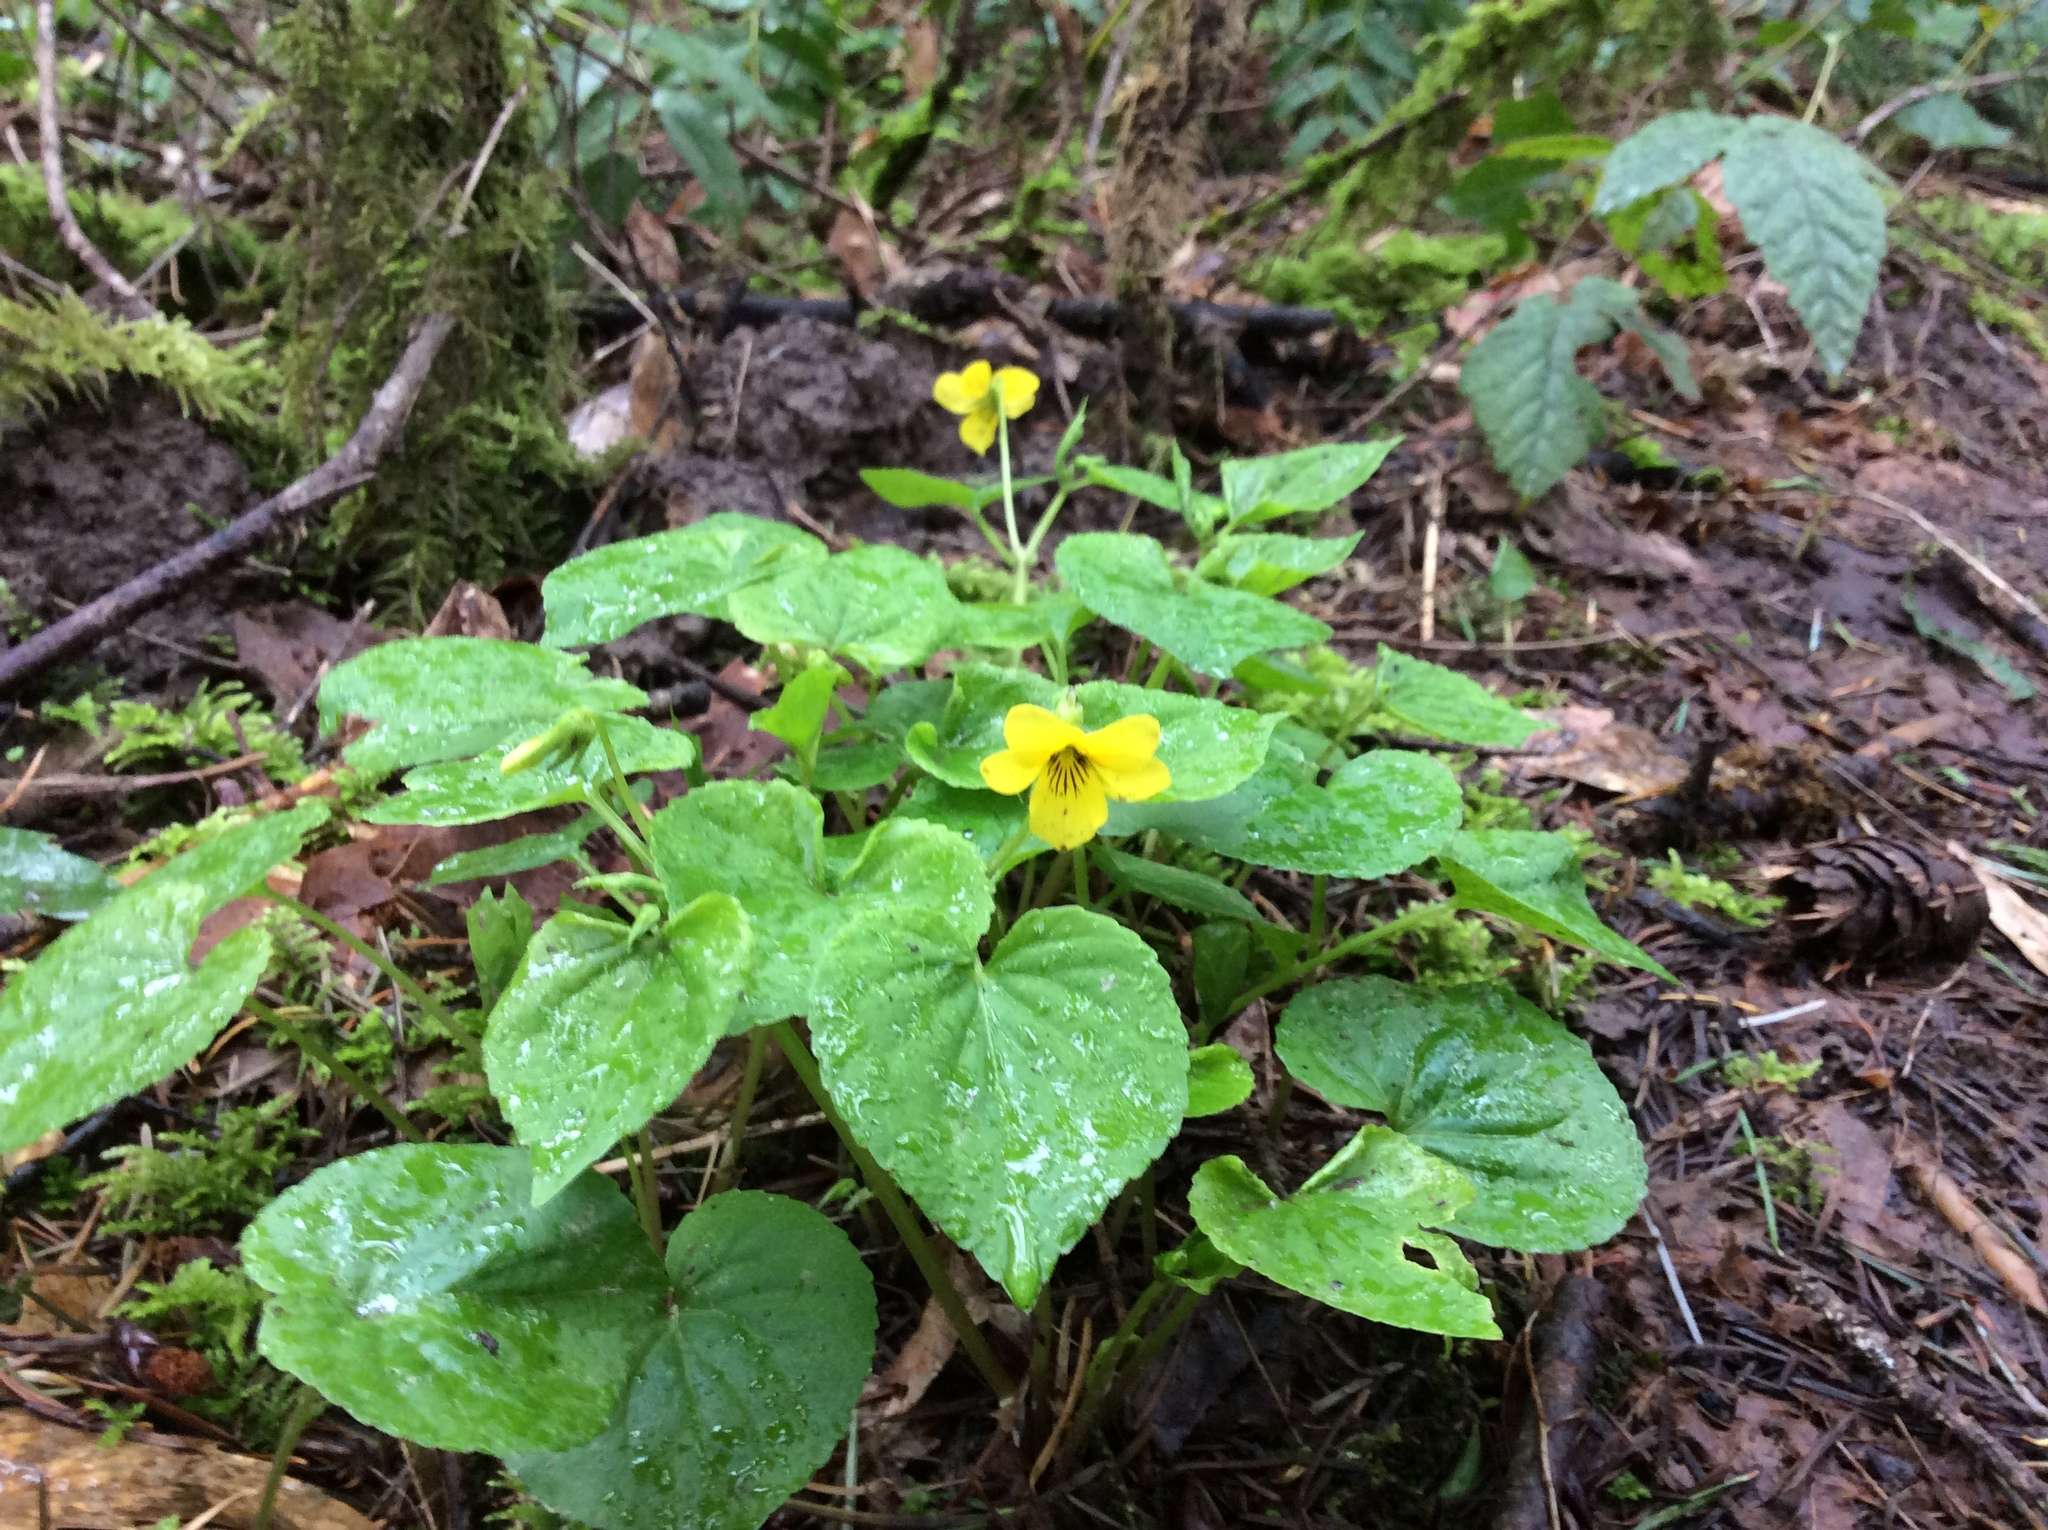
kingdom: Plantae
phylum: Tracheophyta
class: Magnoliopsida
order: Malpighiales
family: Violaceae
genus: Viola
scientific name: Viola glabella
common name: Stream violet
